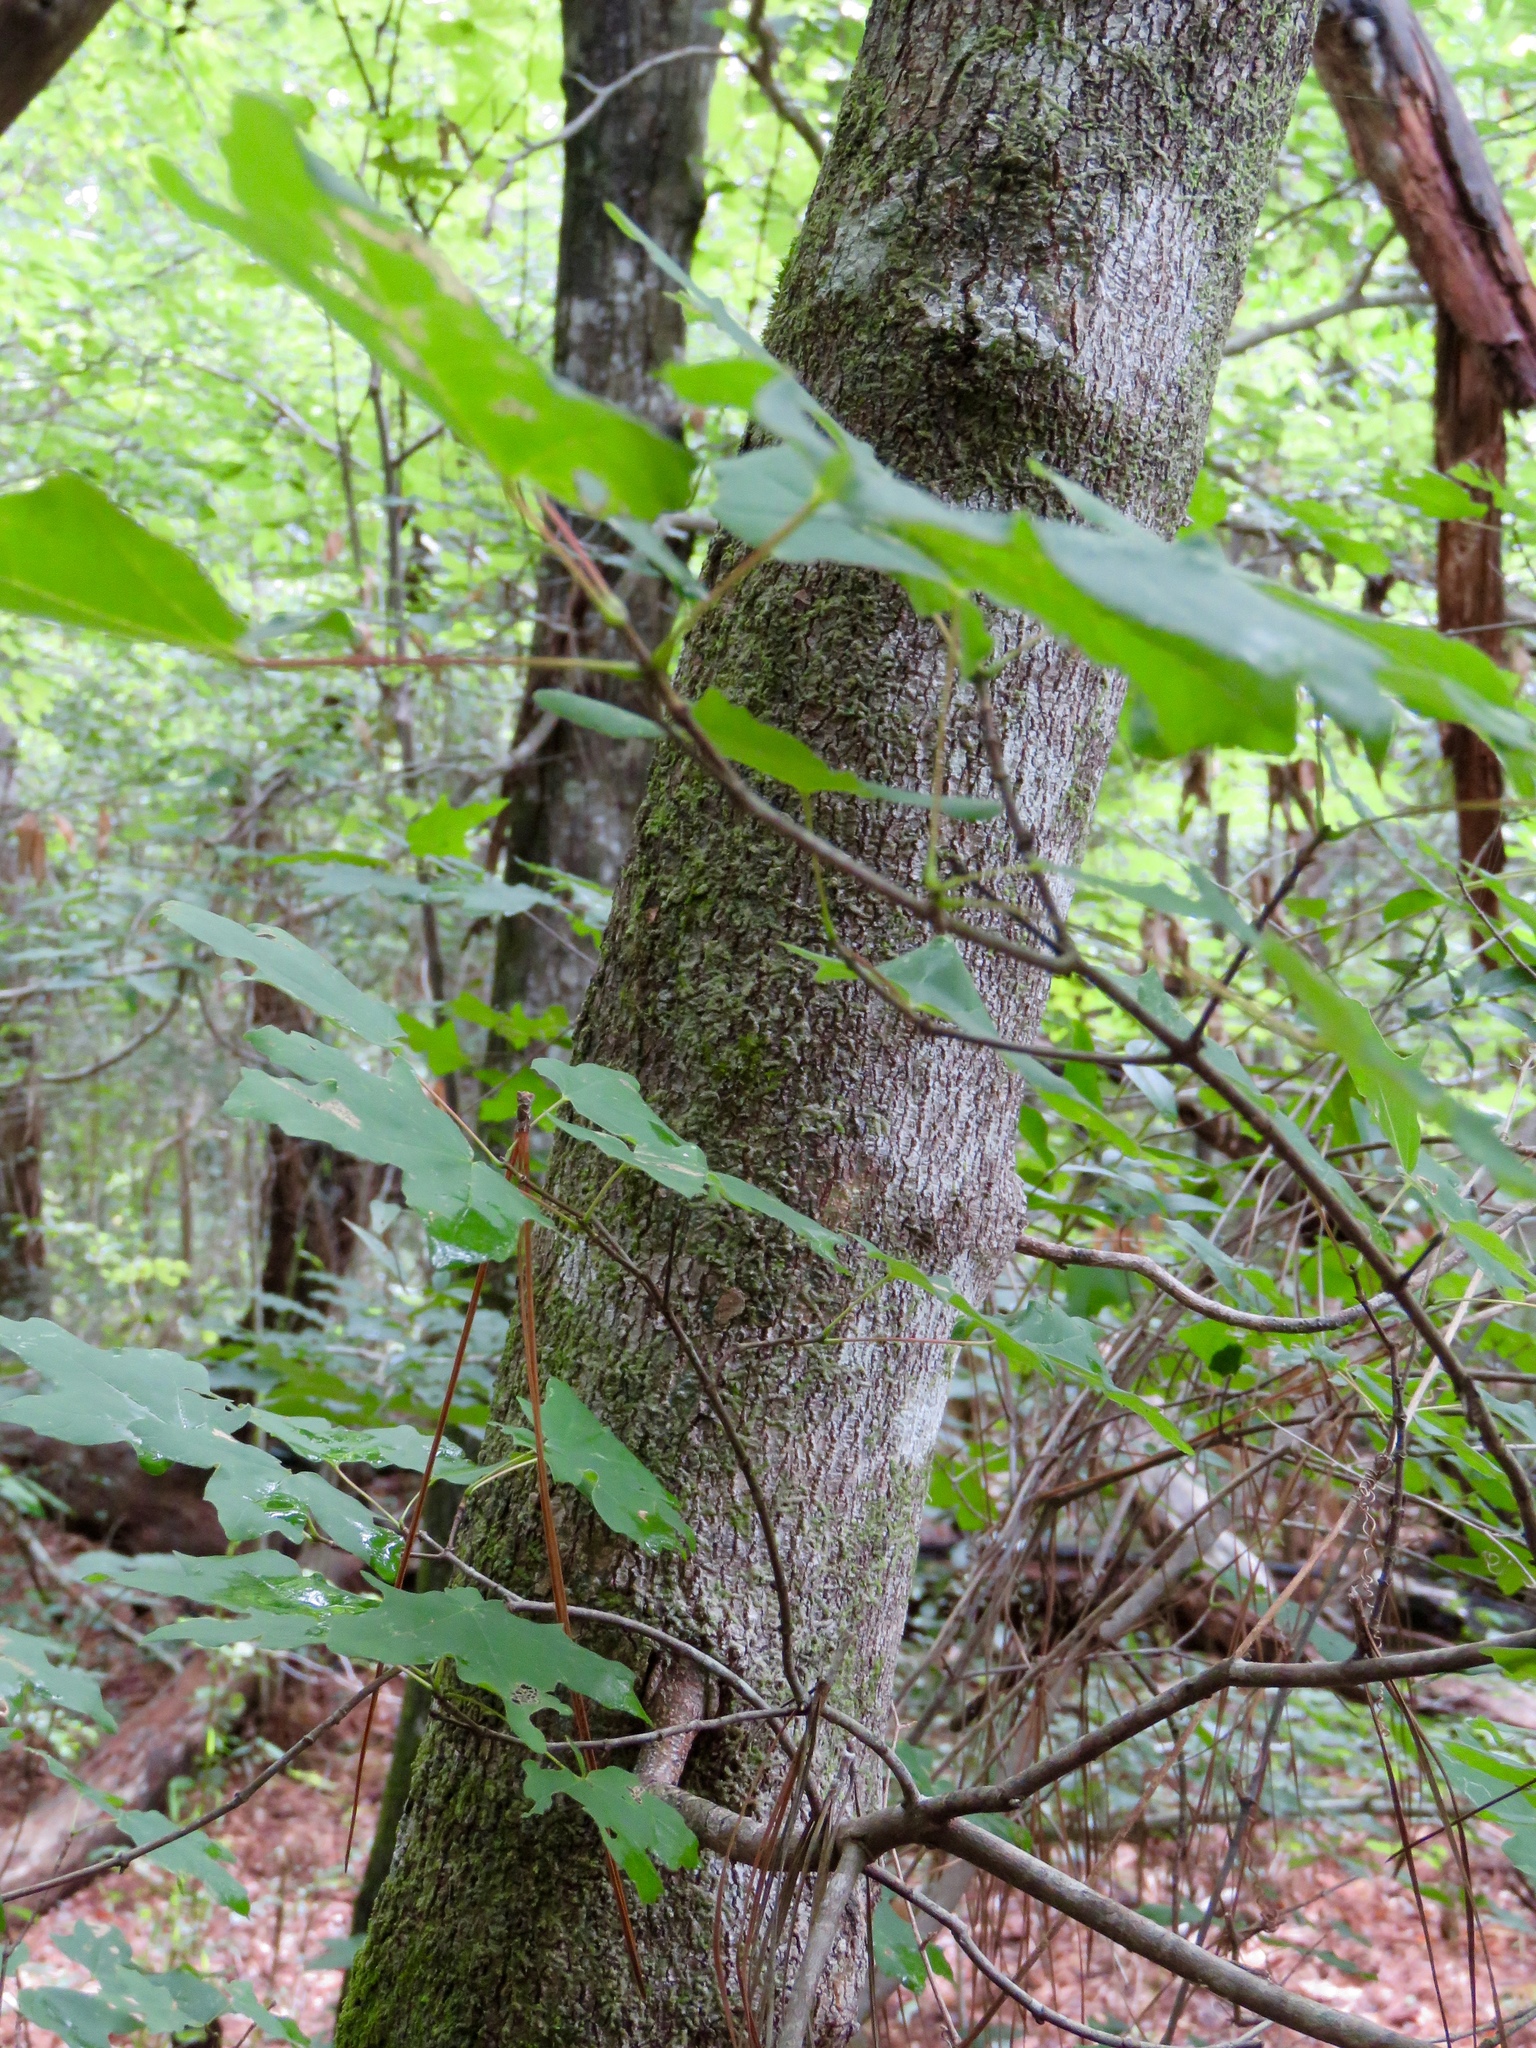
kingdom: Plantae
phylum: Tracheophyta
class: Magnoliopsida
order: Sapindales
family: Sapindaceae
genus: Acer
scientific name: Acer floridanum
